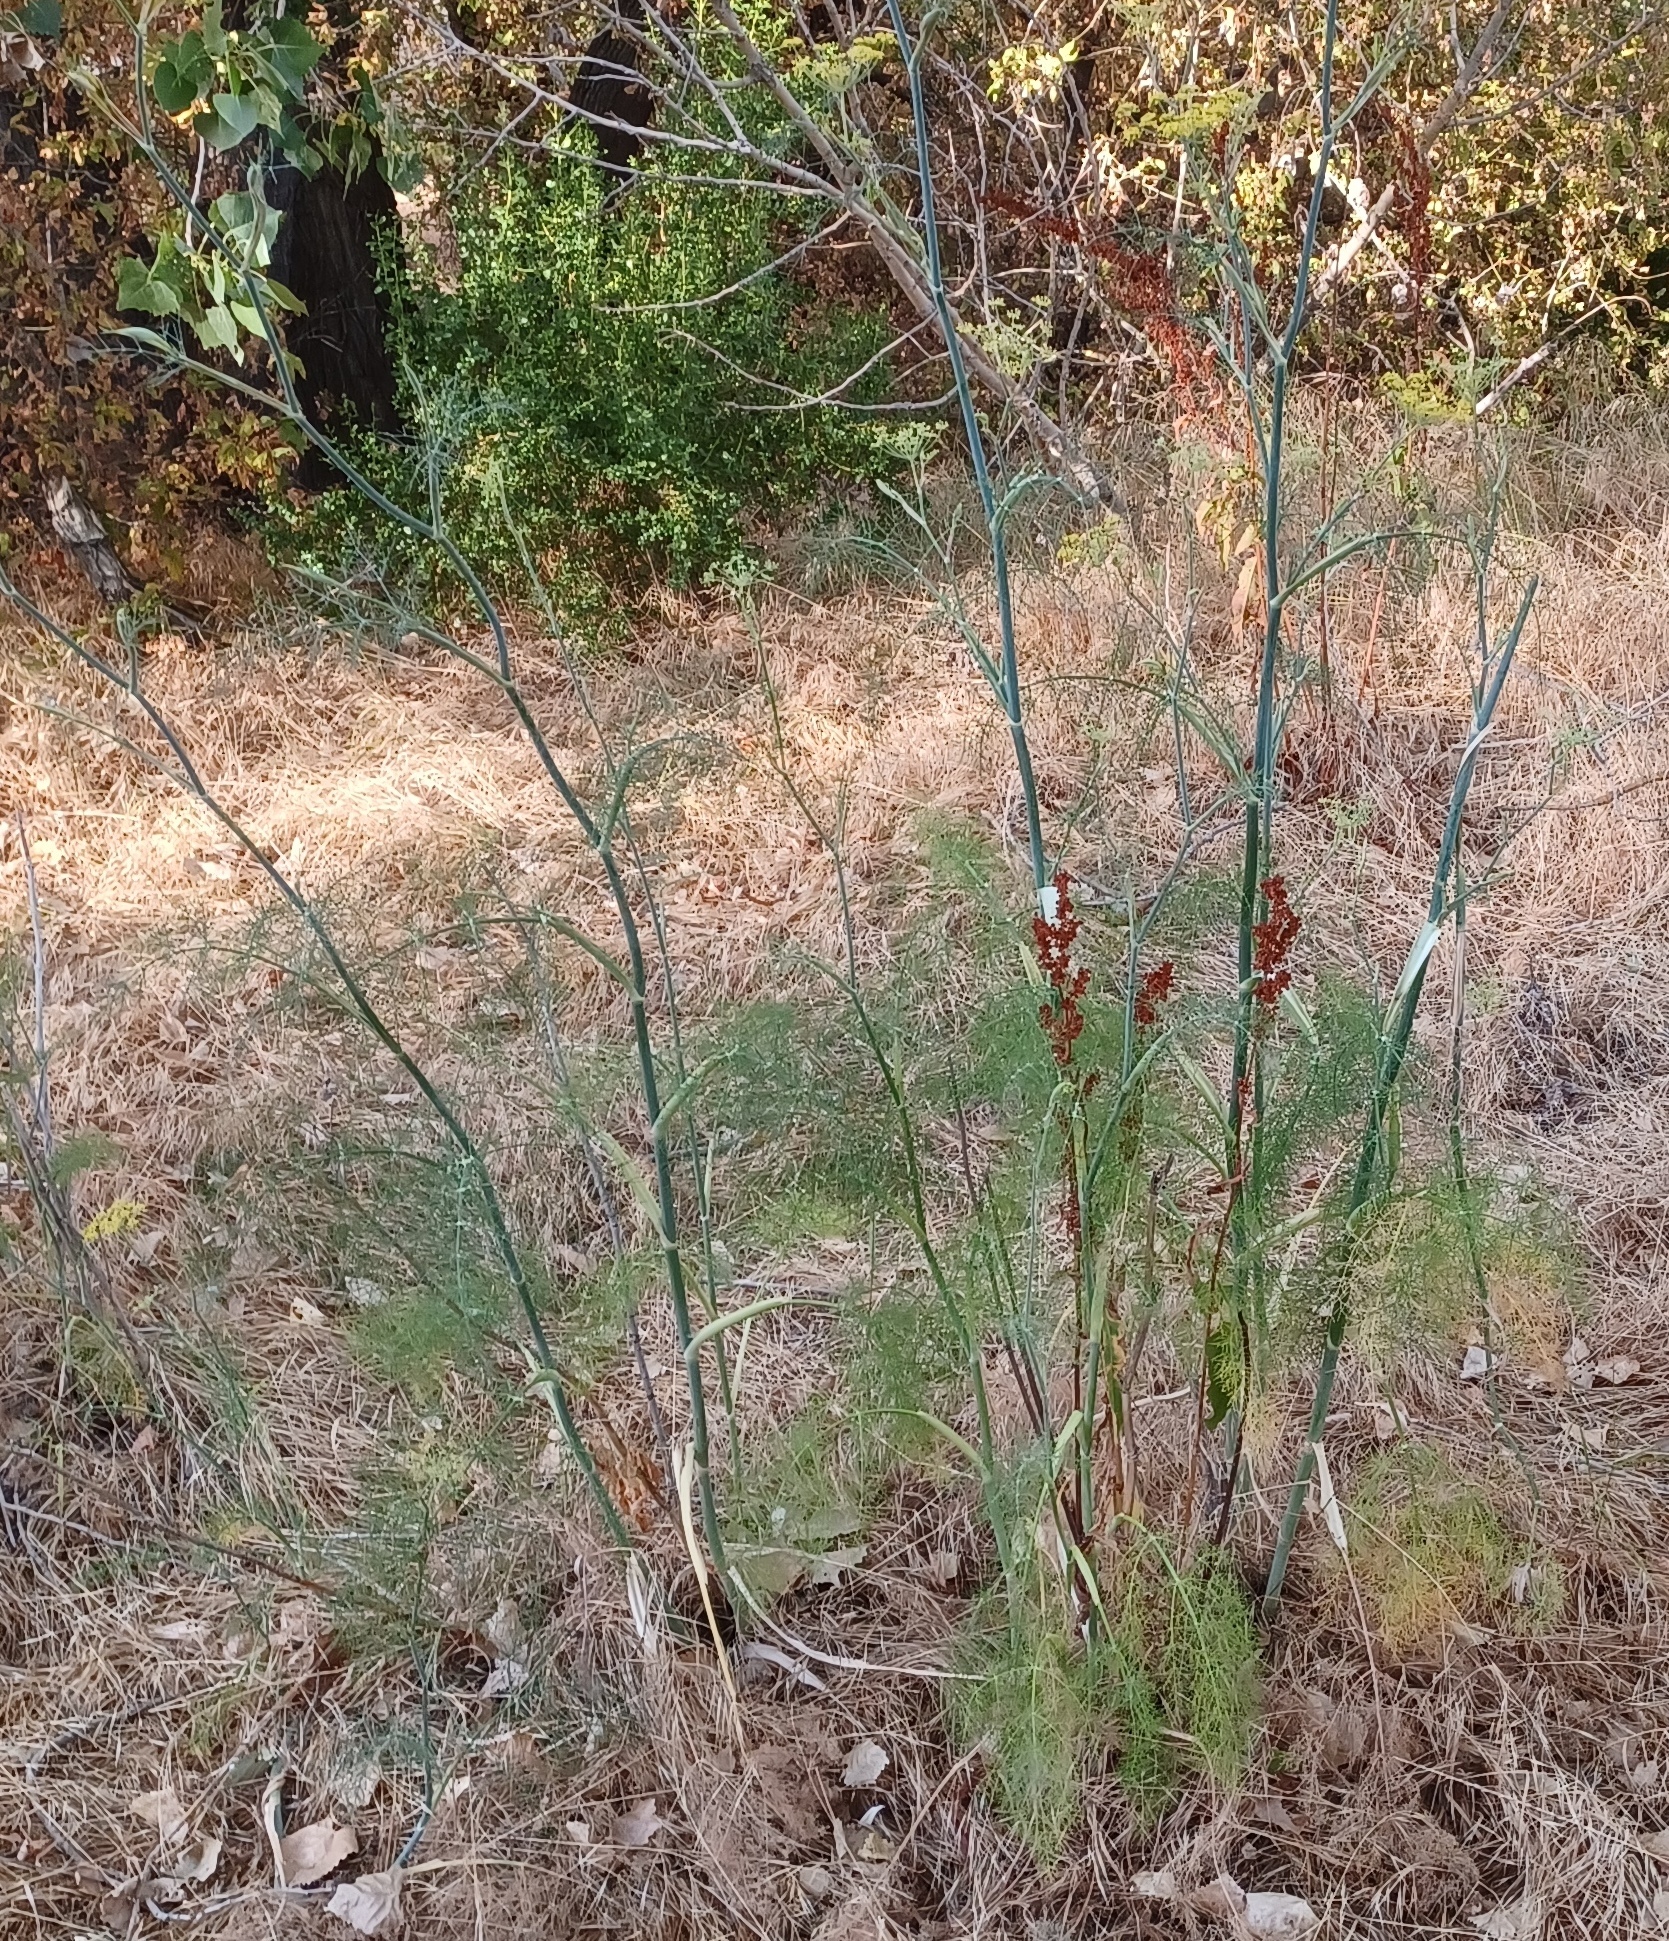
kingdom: Plantae
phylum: Tracheophyta
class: Magnoliopsida
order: Apiales
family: Apiaceae
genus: Foeniculum
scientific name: Foeniculum vulgare
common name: Fennel
